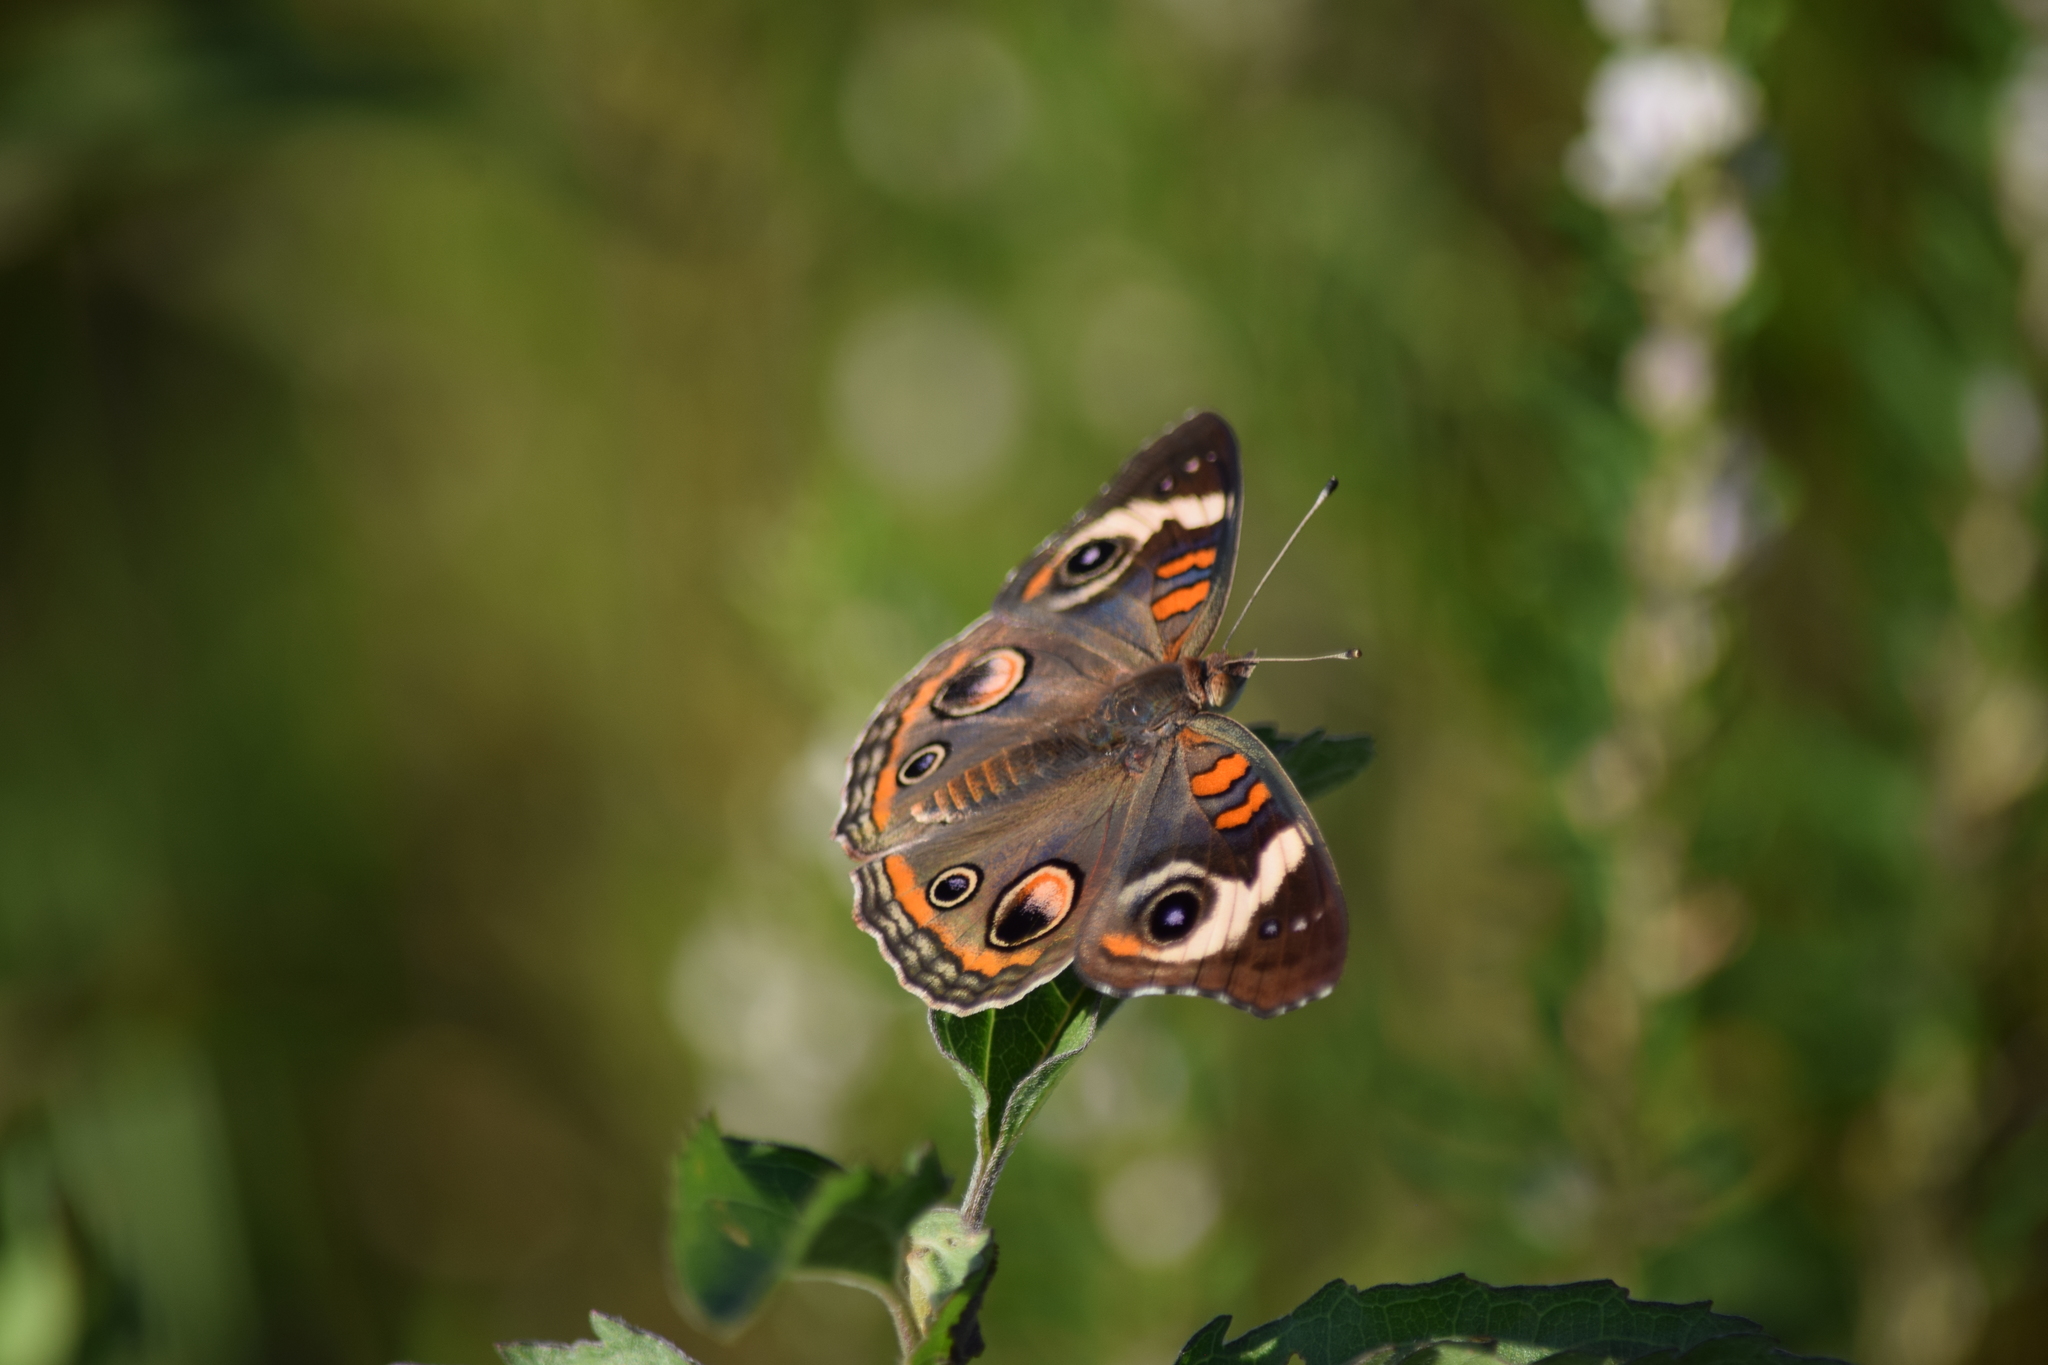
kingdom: Animalia
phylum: Arthropoda
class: Insecta
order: Lepidoptera
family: Nymphalidae
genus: Junonia
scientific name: Junonia coenia
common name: Common buckeye
